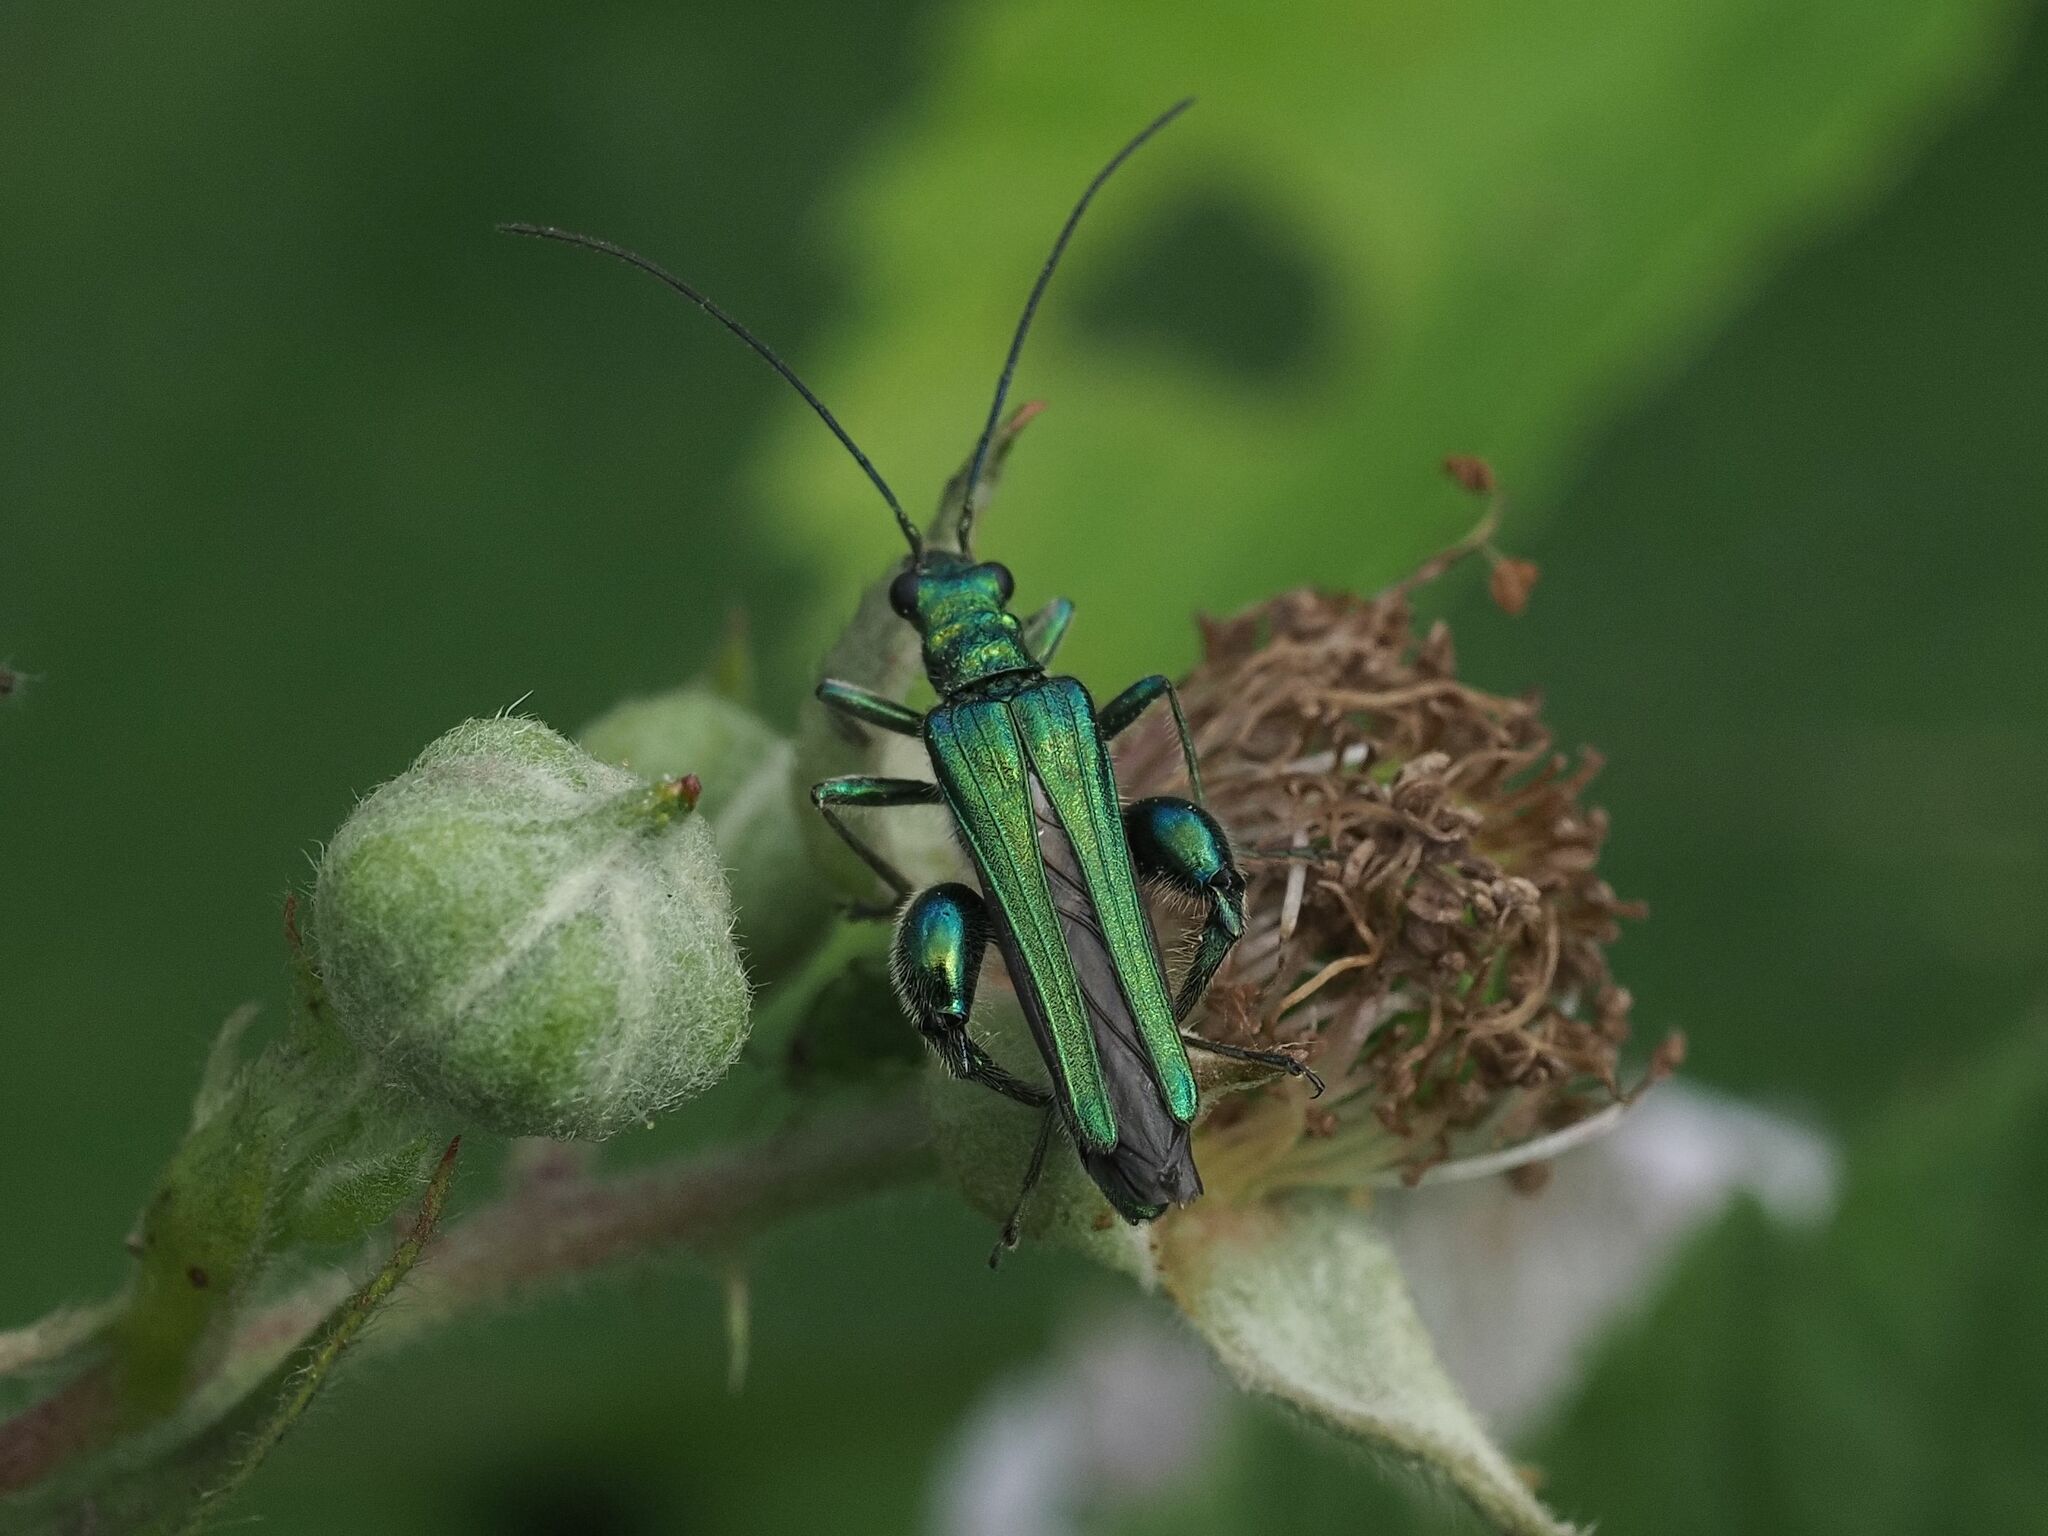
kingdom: Animalia
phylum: Arthropoda
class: Insecta
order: Coleoptera
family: Oedemeridae
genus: Oedemera
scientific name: Oedemera nobilis
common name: Swollen-thighed beetle
